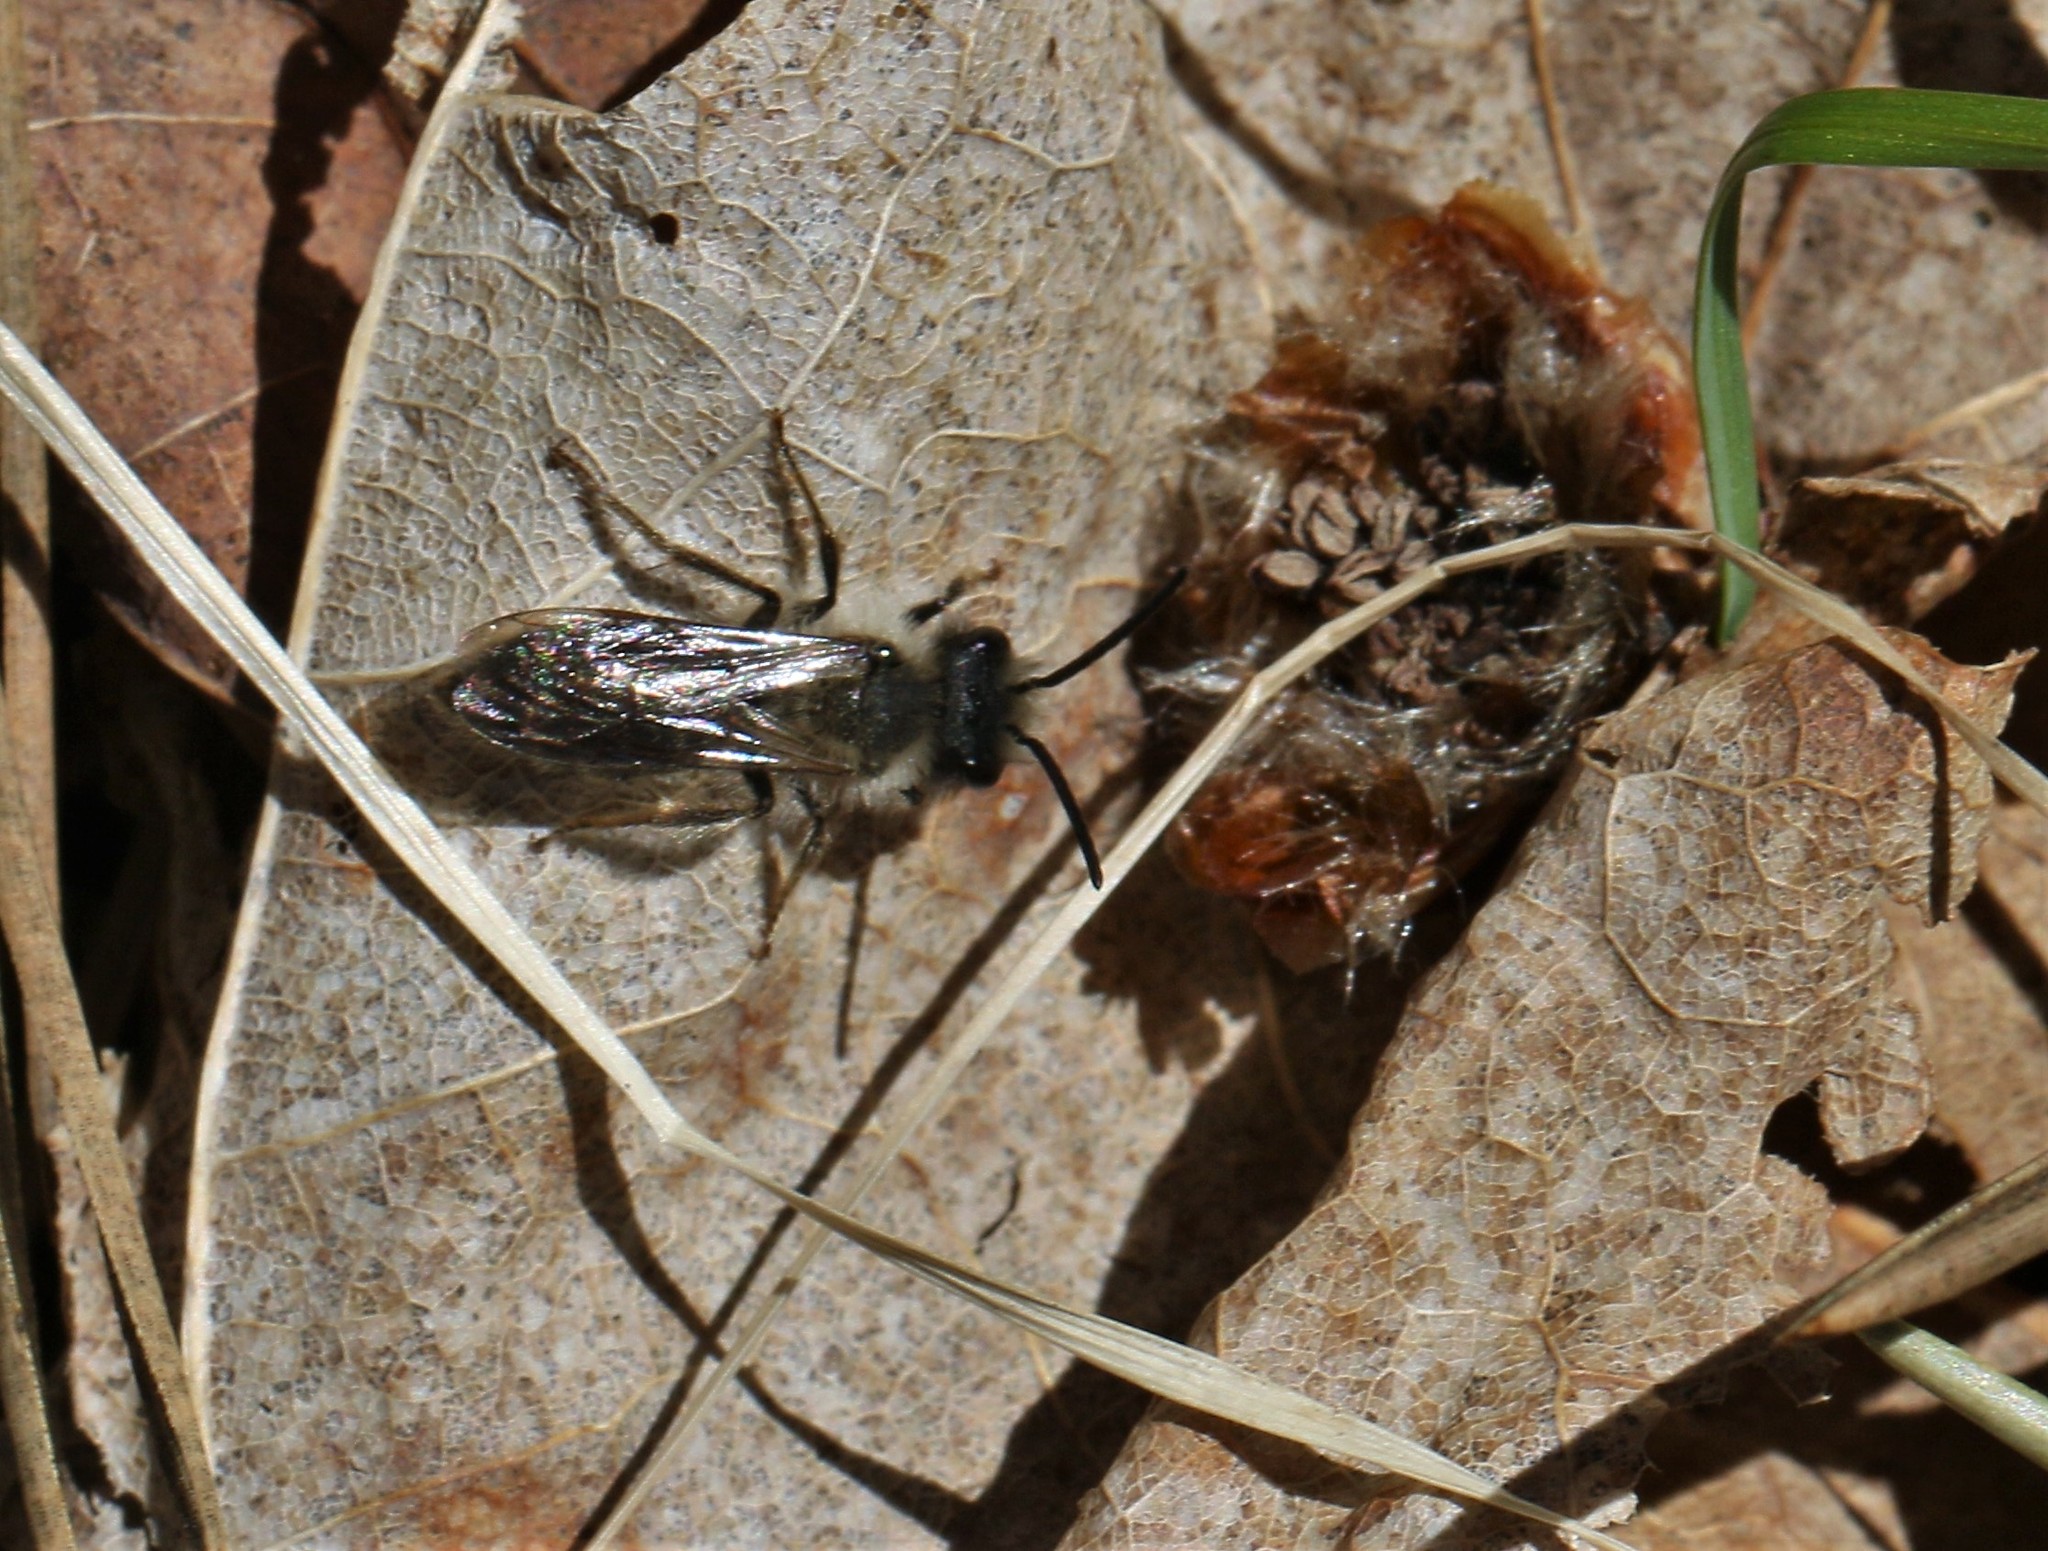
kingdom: Animalia
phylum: Arthropoda
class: Insecta
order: Hymenoptera
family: Andrenidae
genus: Andrena
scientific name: Andrena frigida
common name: Frigid mining bee
